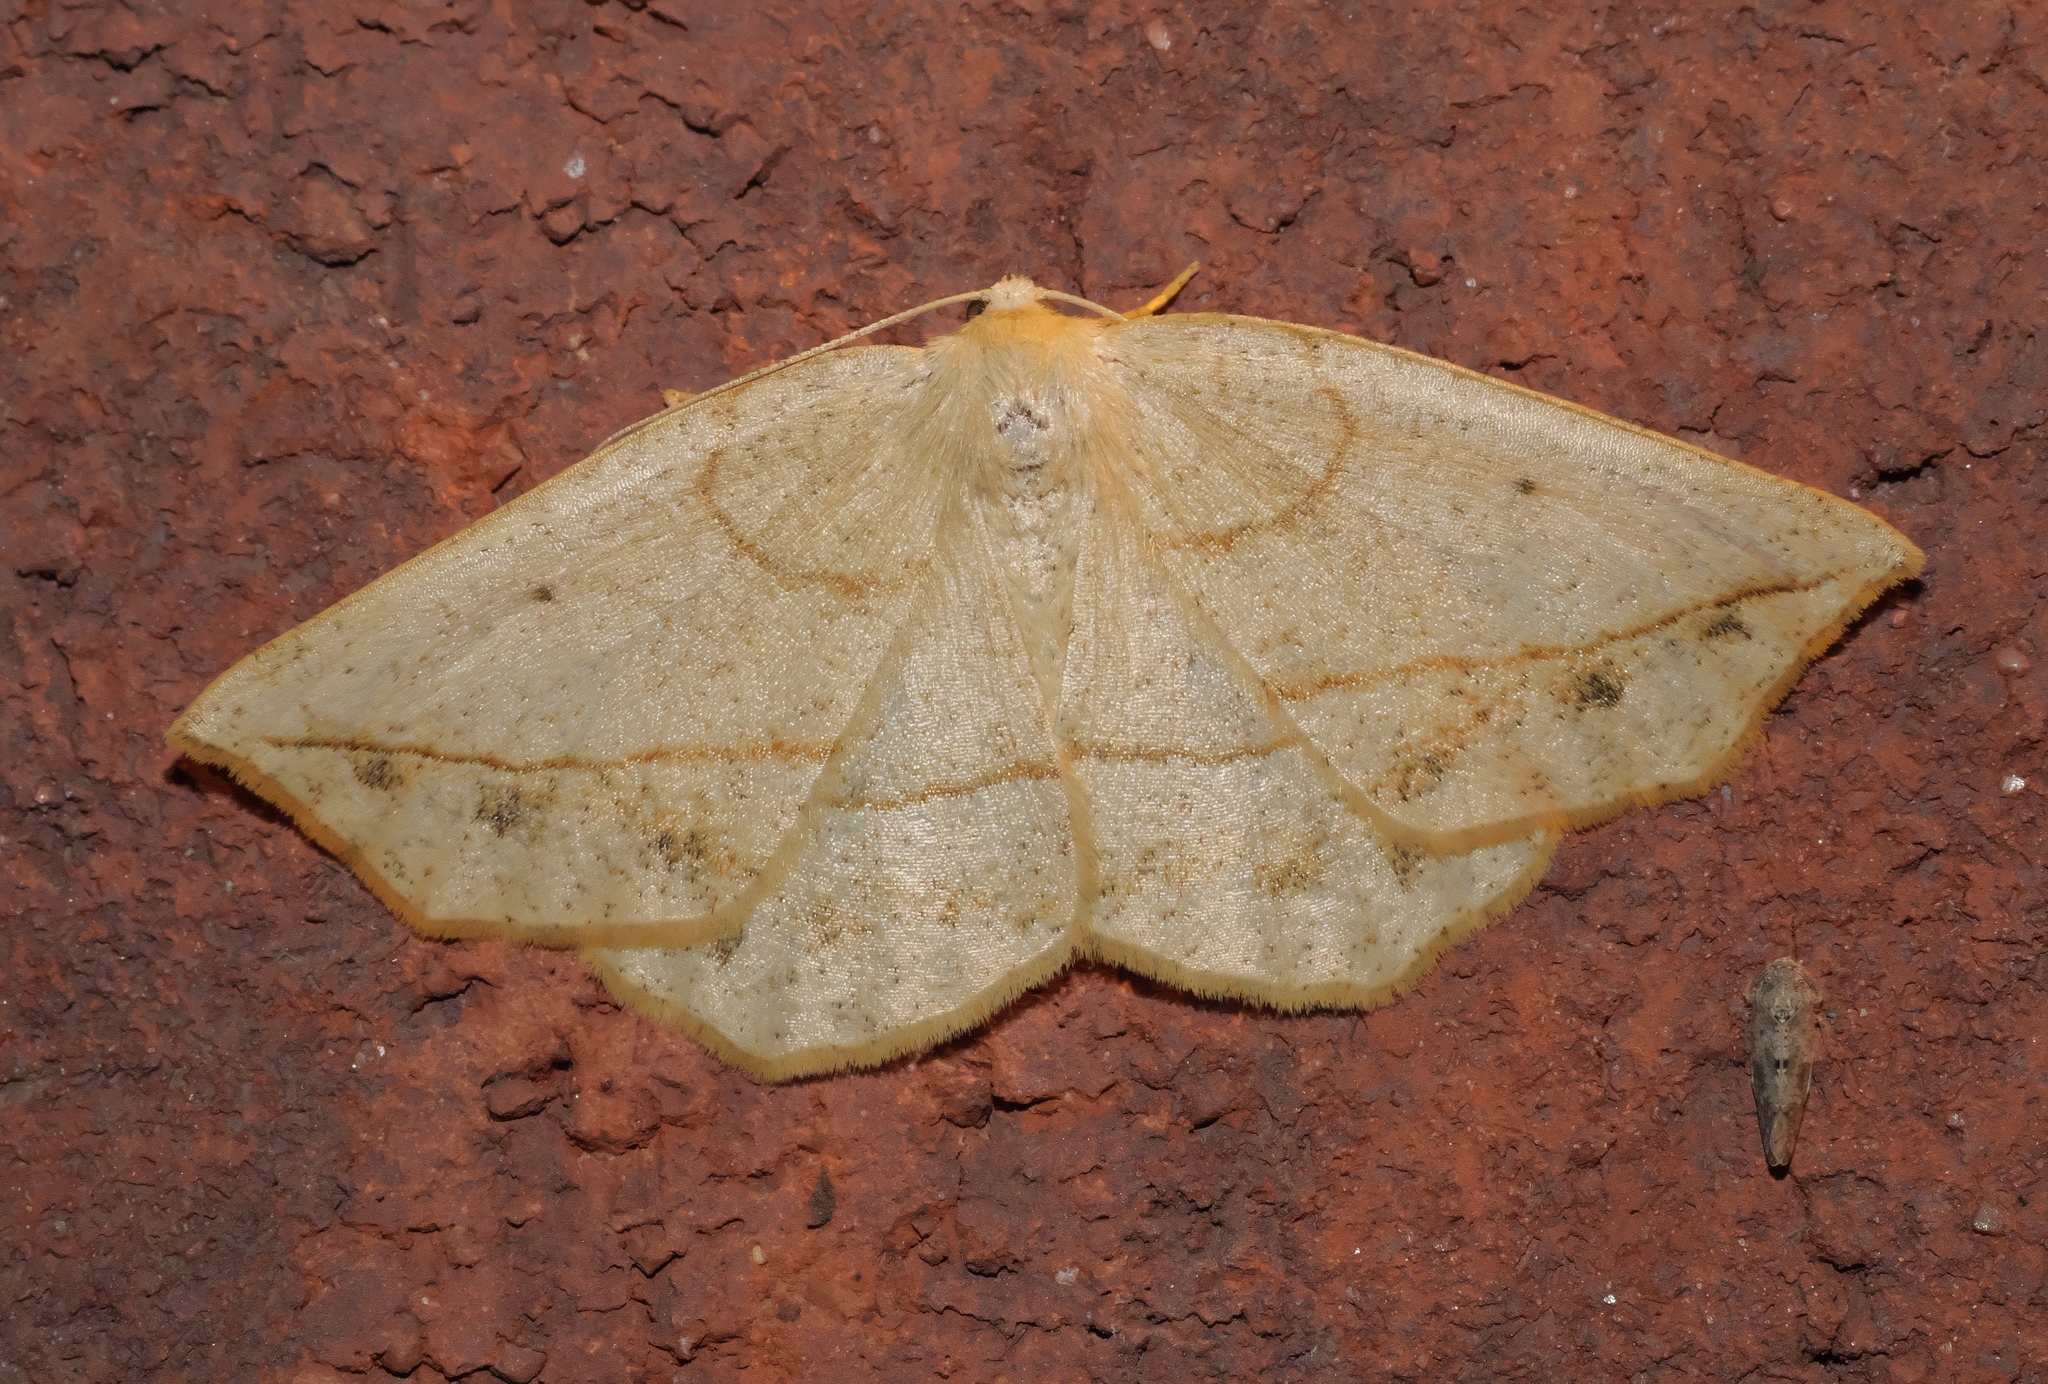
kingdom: Animalia
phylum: Arthropoda
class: Insecta
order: Lepidoptera
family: Geometridae
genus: Eusarca
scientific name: Eusarca confusaria
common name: Confused eusarca
